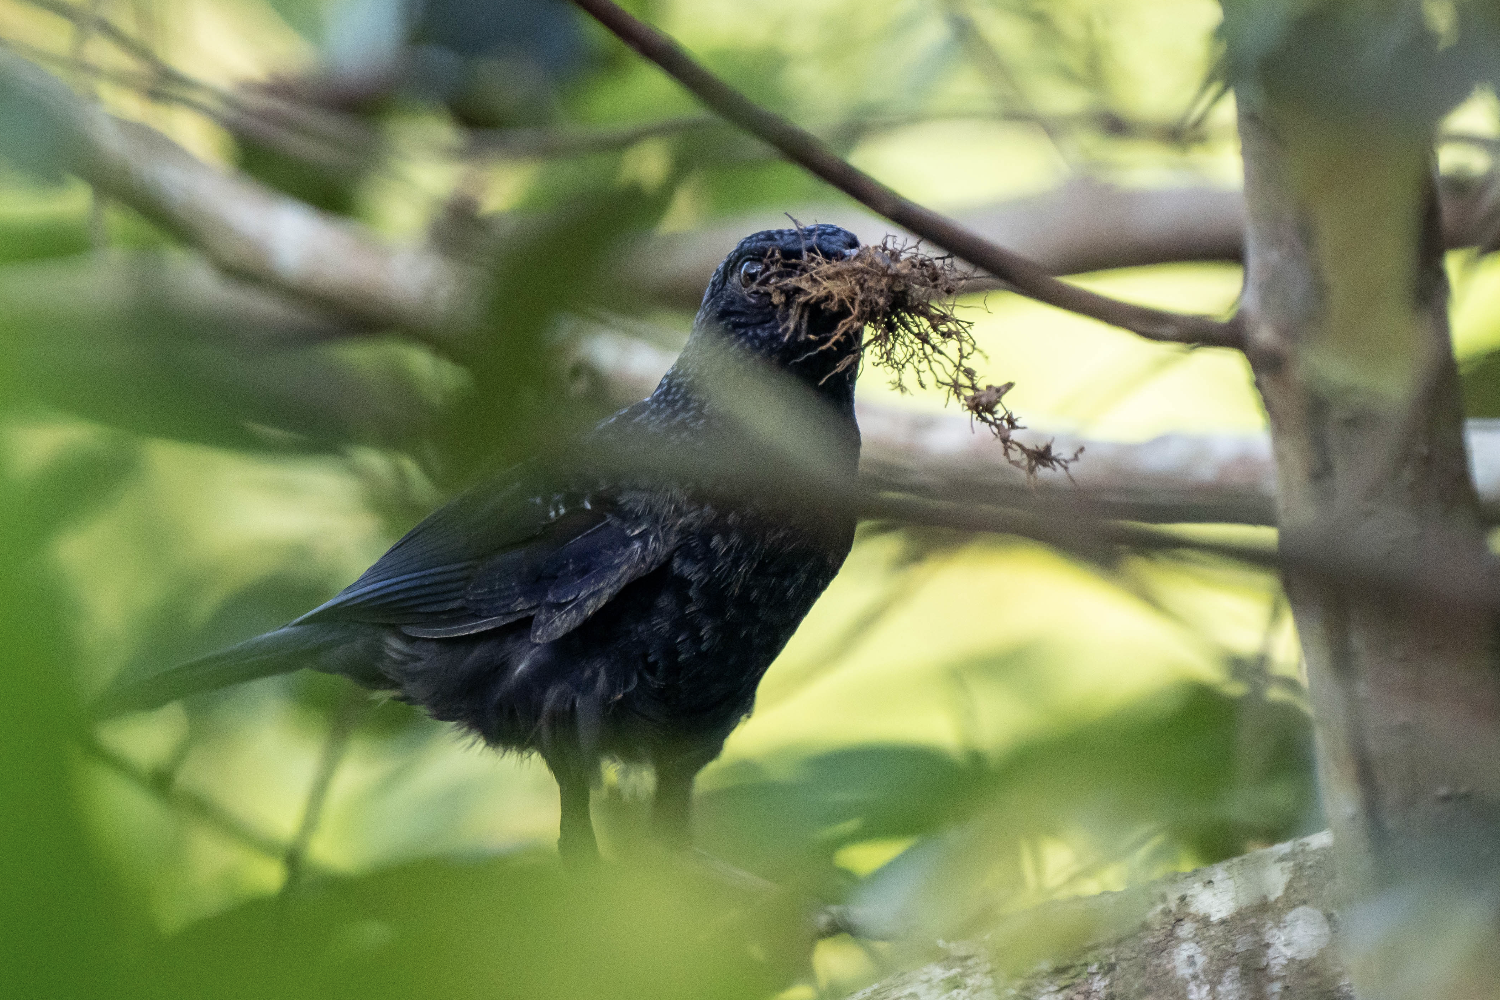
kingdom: Animalia
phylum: Chordata
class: Aves
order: Passeriformes
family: Muscicapidae
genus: Myophonus
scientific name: Myophonus caeruleus
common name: Blue whistling-thrush
